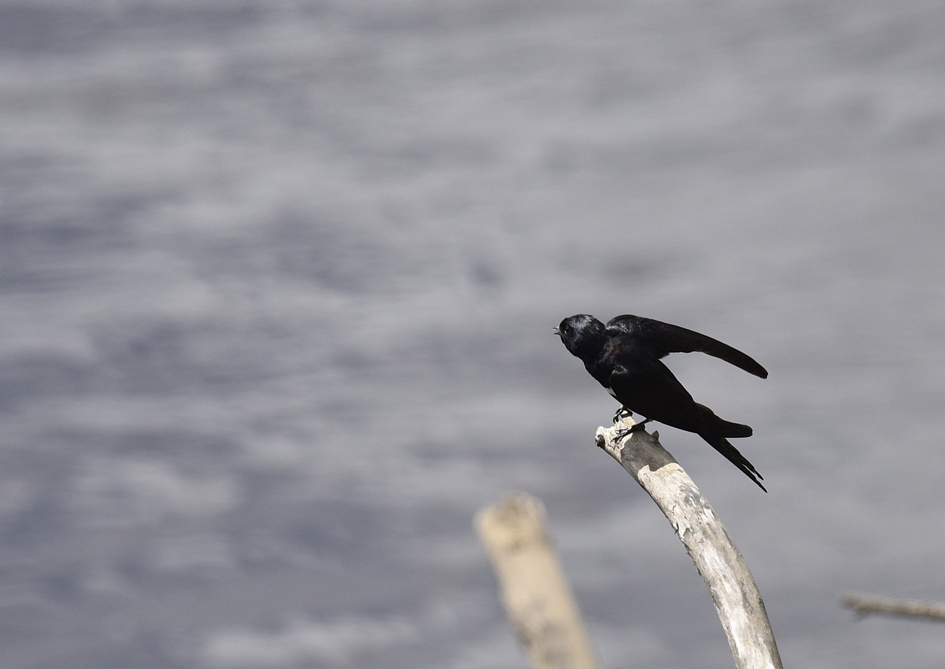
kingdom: Animalia
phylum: Chordata
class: Aves
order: Passeriformes
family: Hirundinidae
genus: Atticora
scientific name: Atticora fasciata
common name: White-banded swallow
